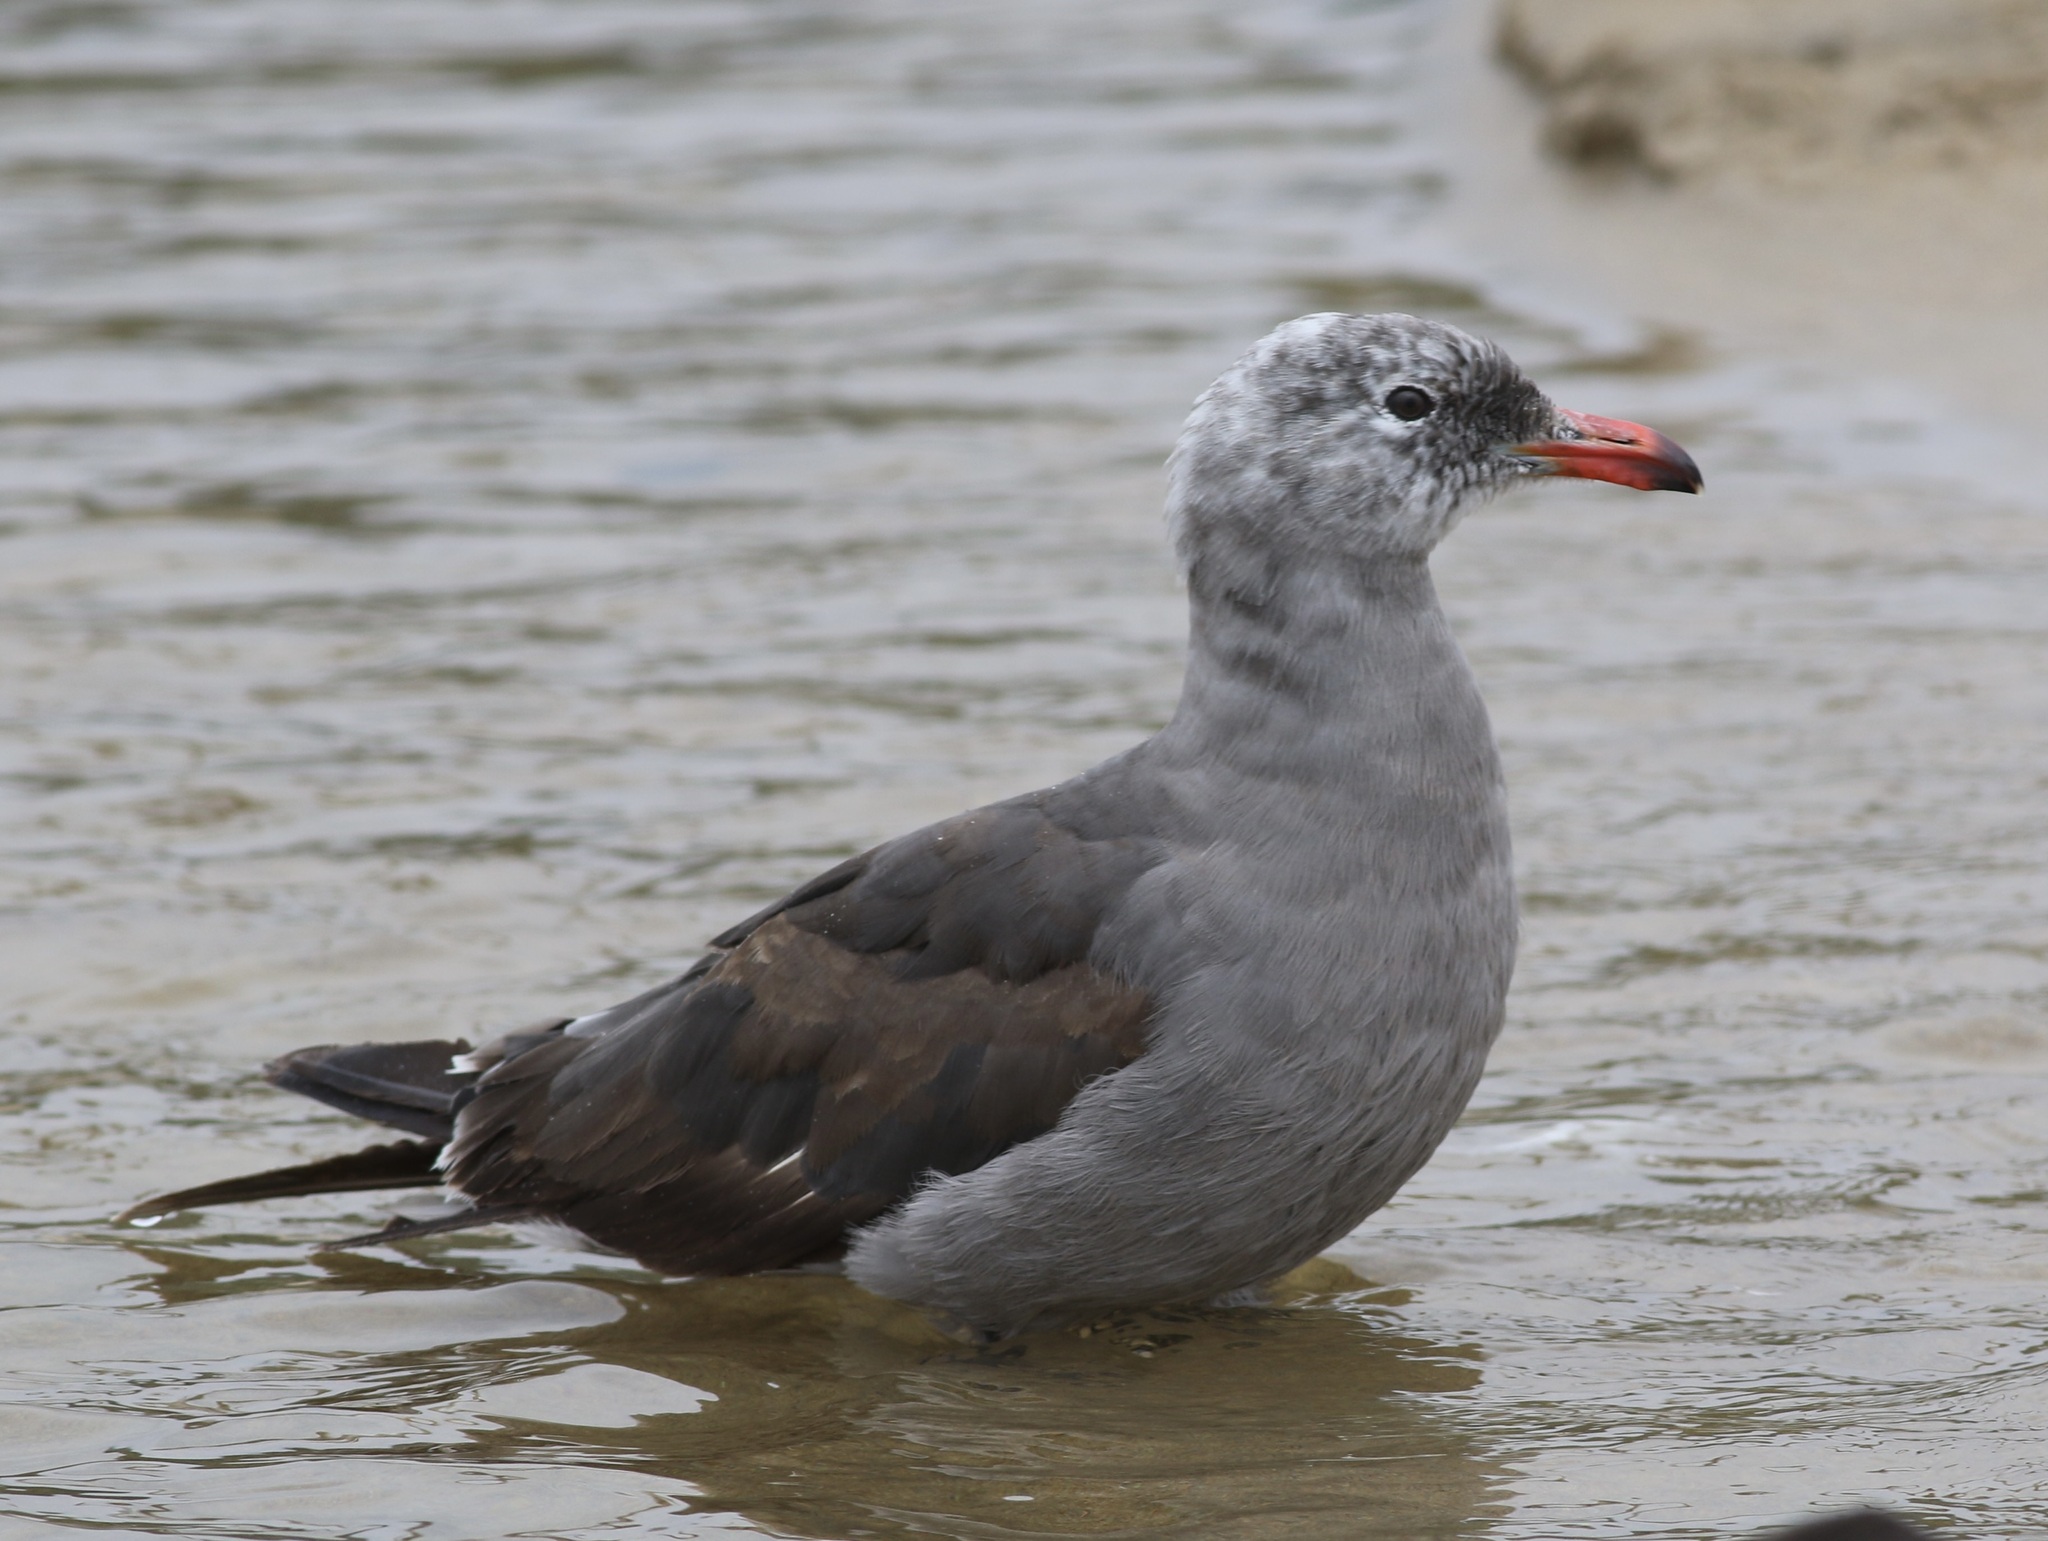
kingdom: Animalia
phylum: Chordata
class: Aves
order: Charadriiformes
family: Laridae
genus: Larus
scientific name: Larus heermanni
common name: Heermann's gull
